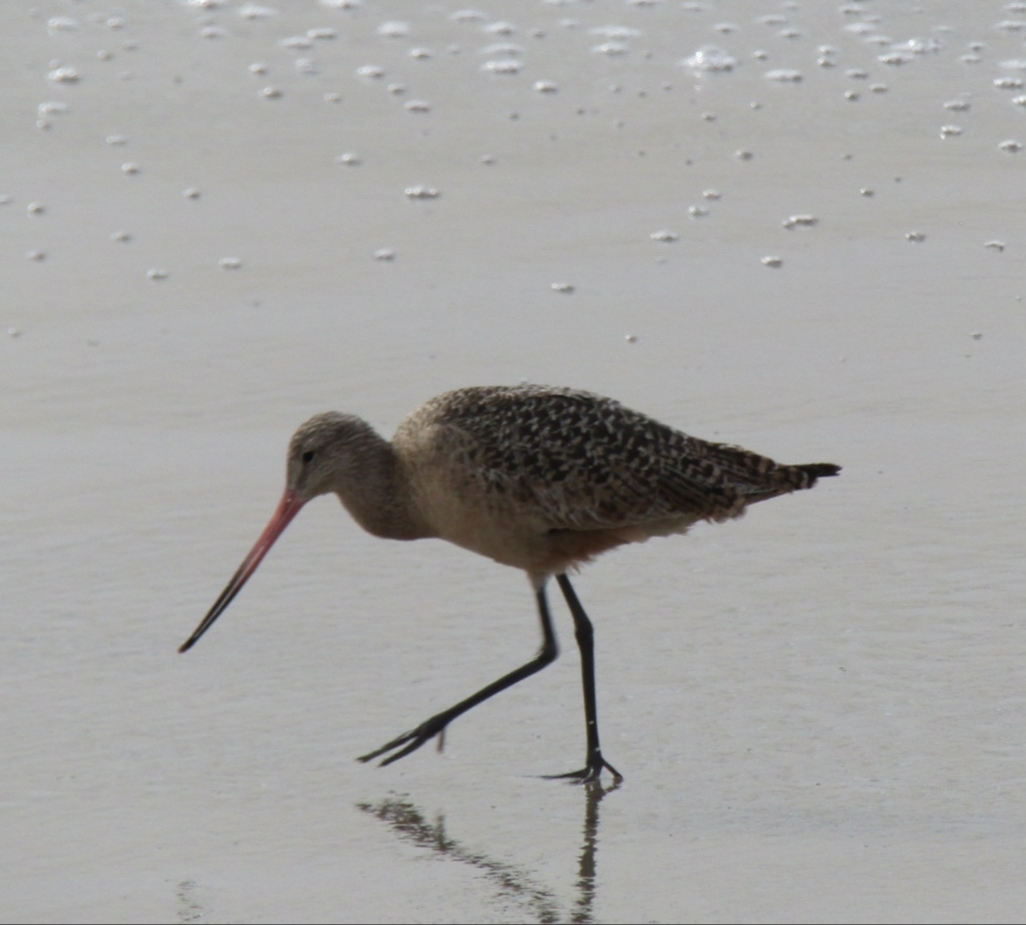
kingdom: Animalia
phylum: Chordata
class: Aves
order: Charadriiformes
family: Scolopacidae
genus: Limosa
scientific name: Limosa fedoa
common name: Marbled godwit
